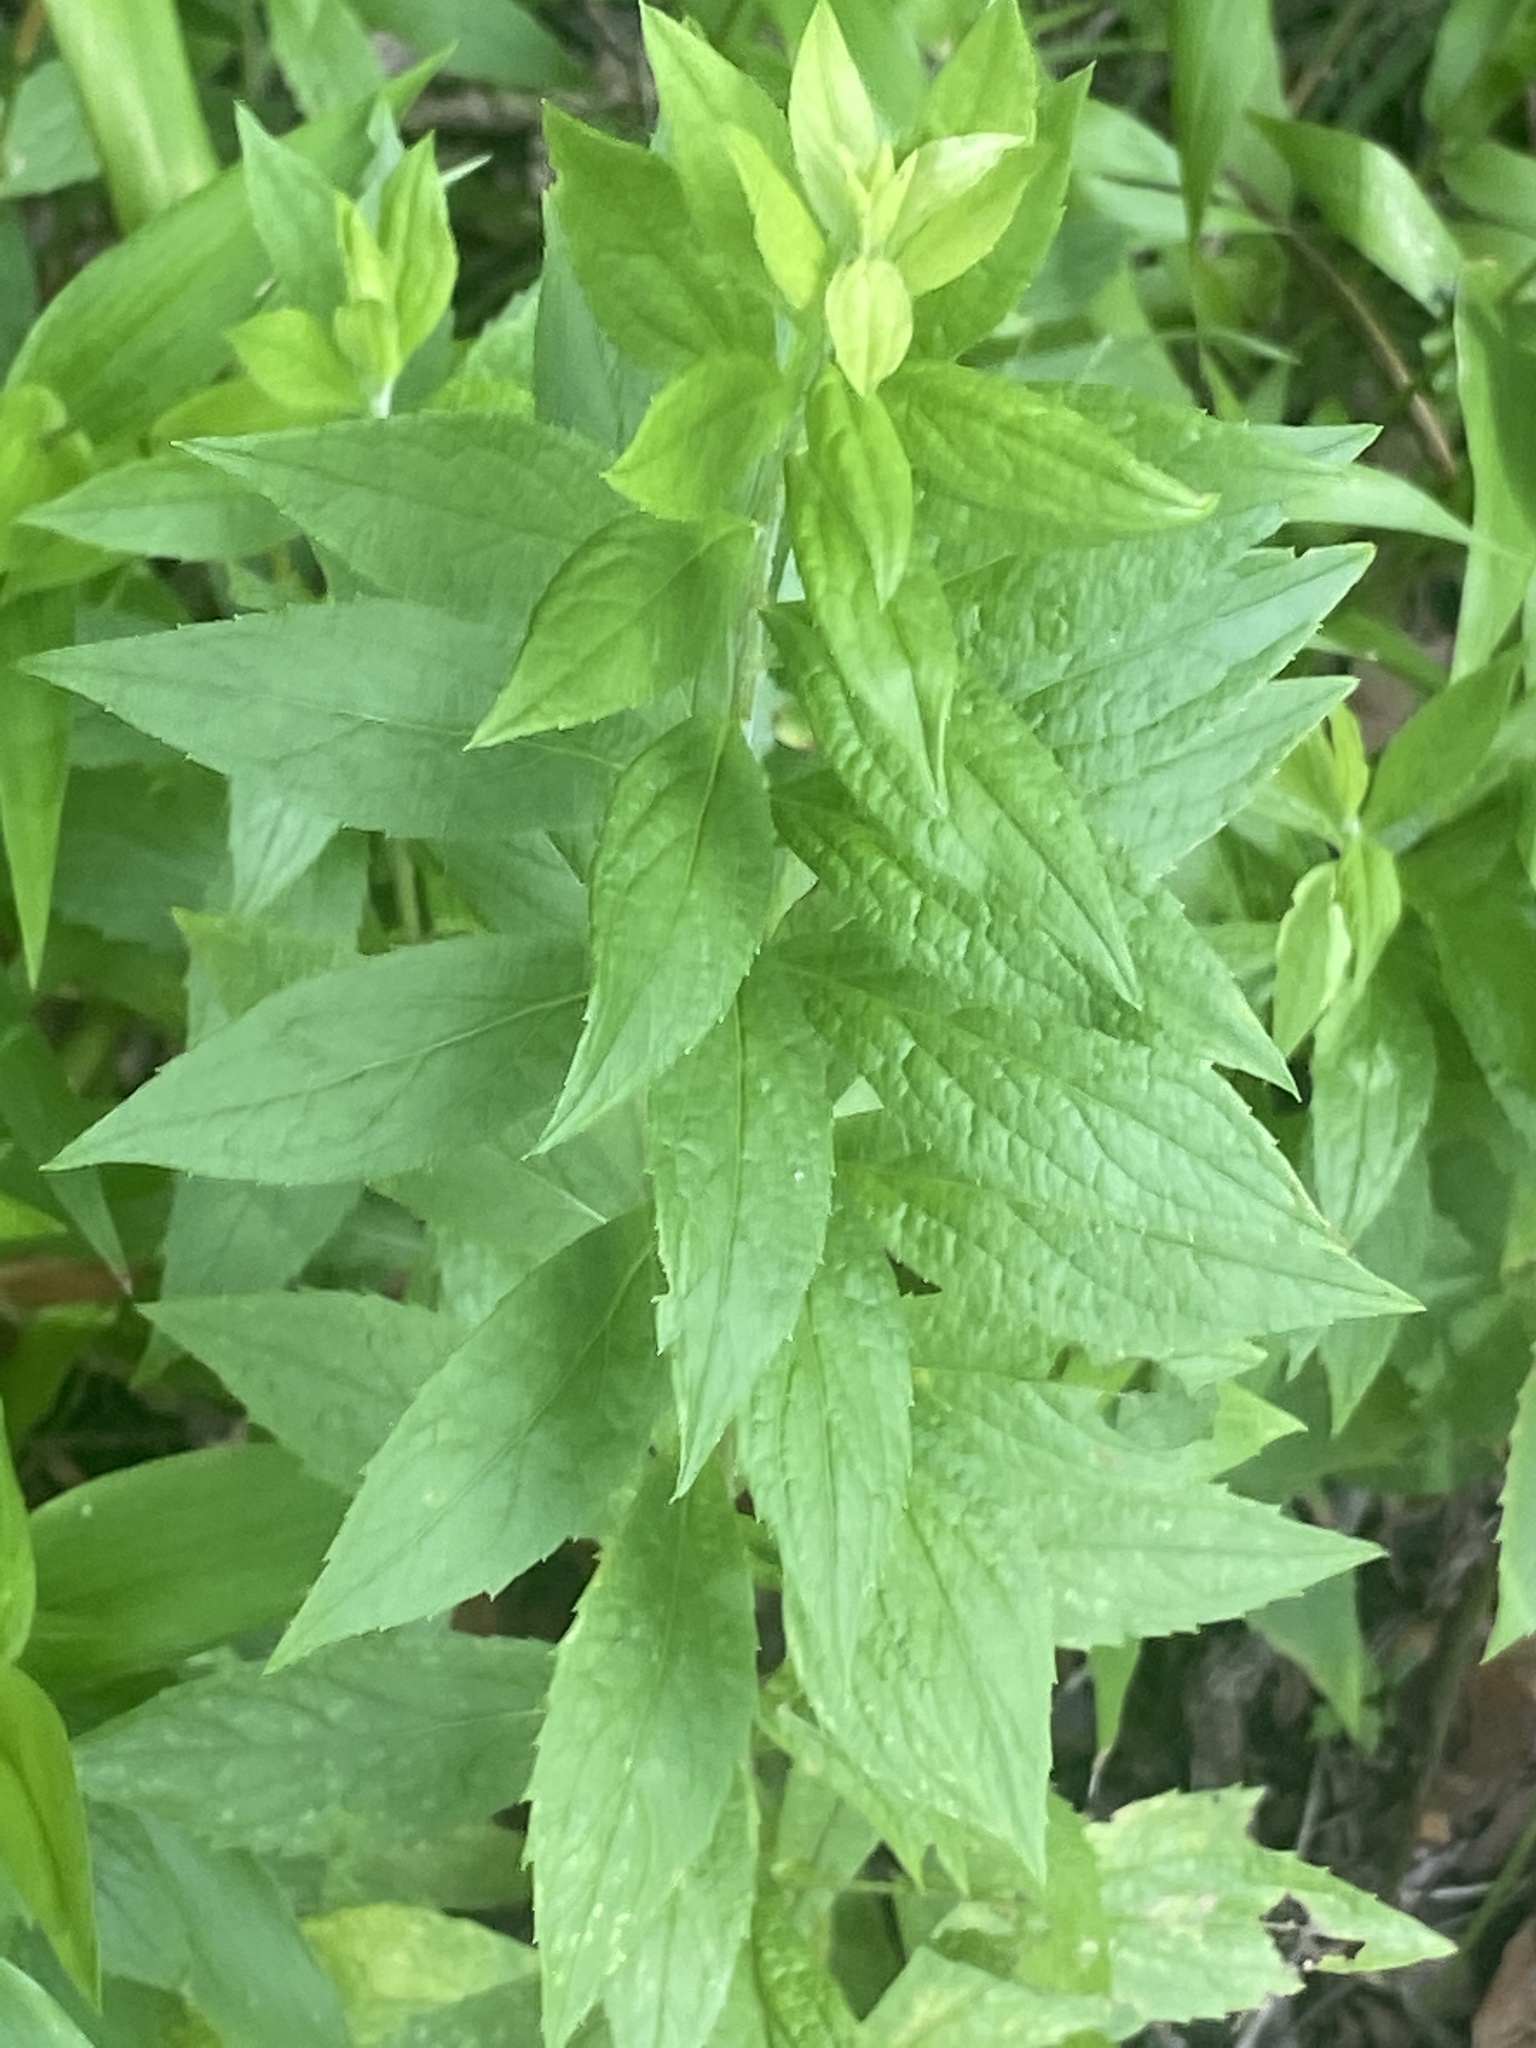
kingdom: Plantae
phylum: Tracheophyta
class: Magnoliopsida
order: Asterales
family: Asteraceae
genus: Solidago
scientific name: Solidago rugosa
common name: Rough-stemmed goldenrod
